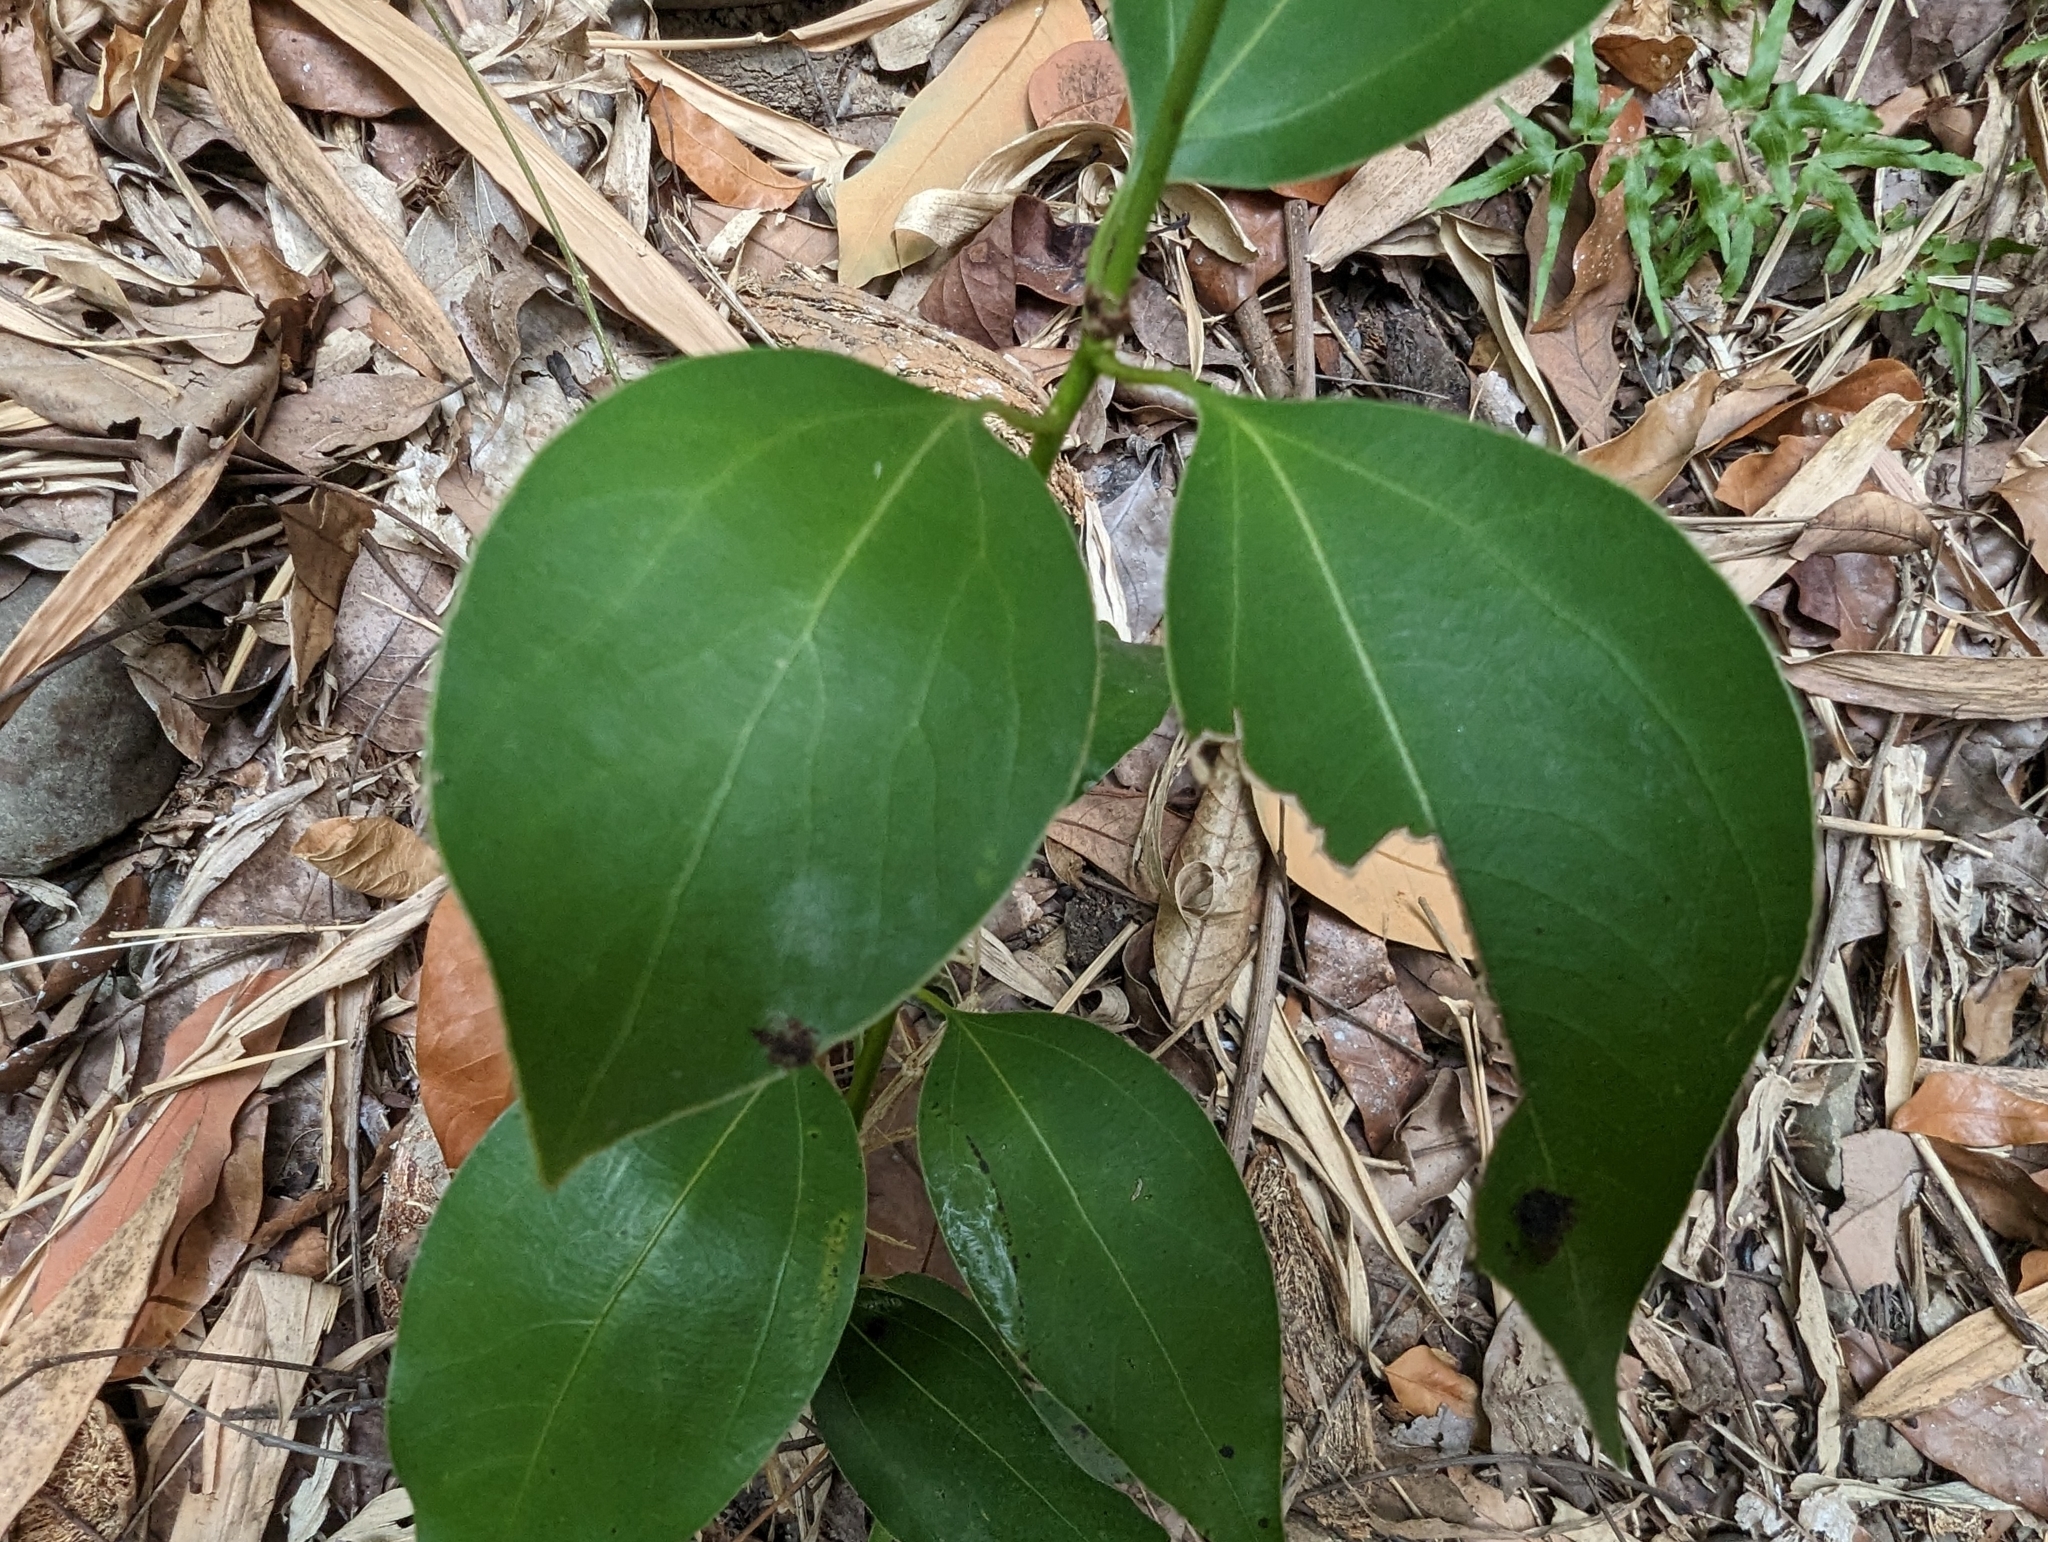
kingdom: Plantae
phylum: Tracheophyta
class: Magnoliopsida
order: Laurales
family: Lauraceae
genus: Neolitsea
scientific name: Neolitsea parvigemma
